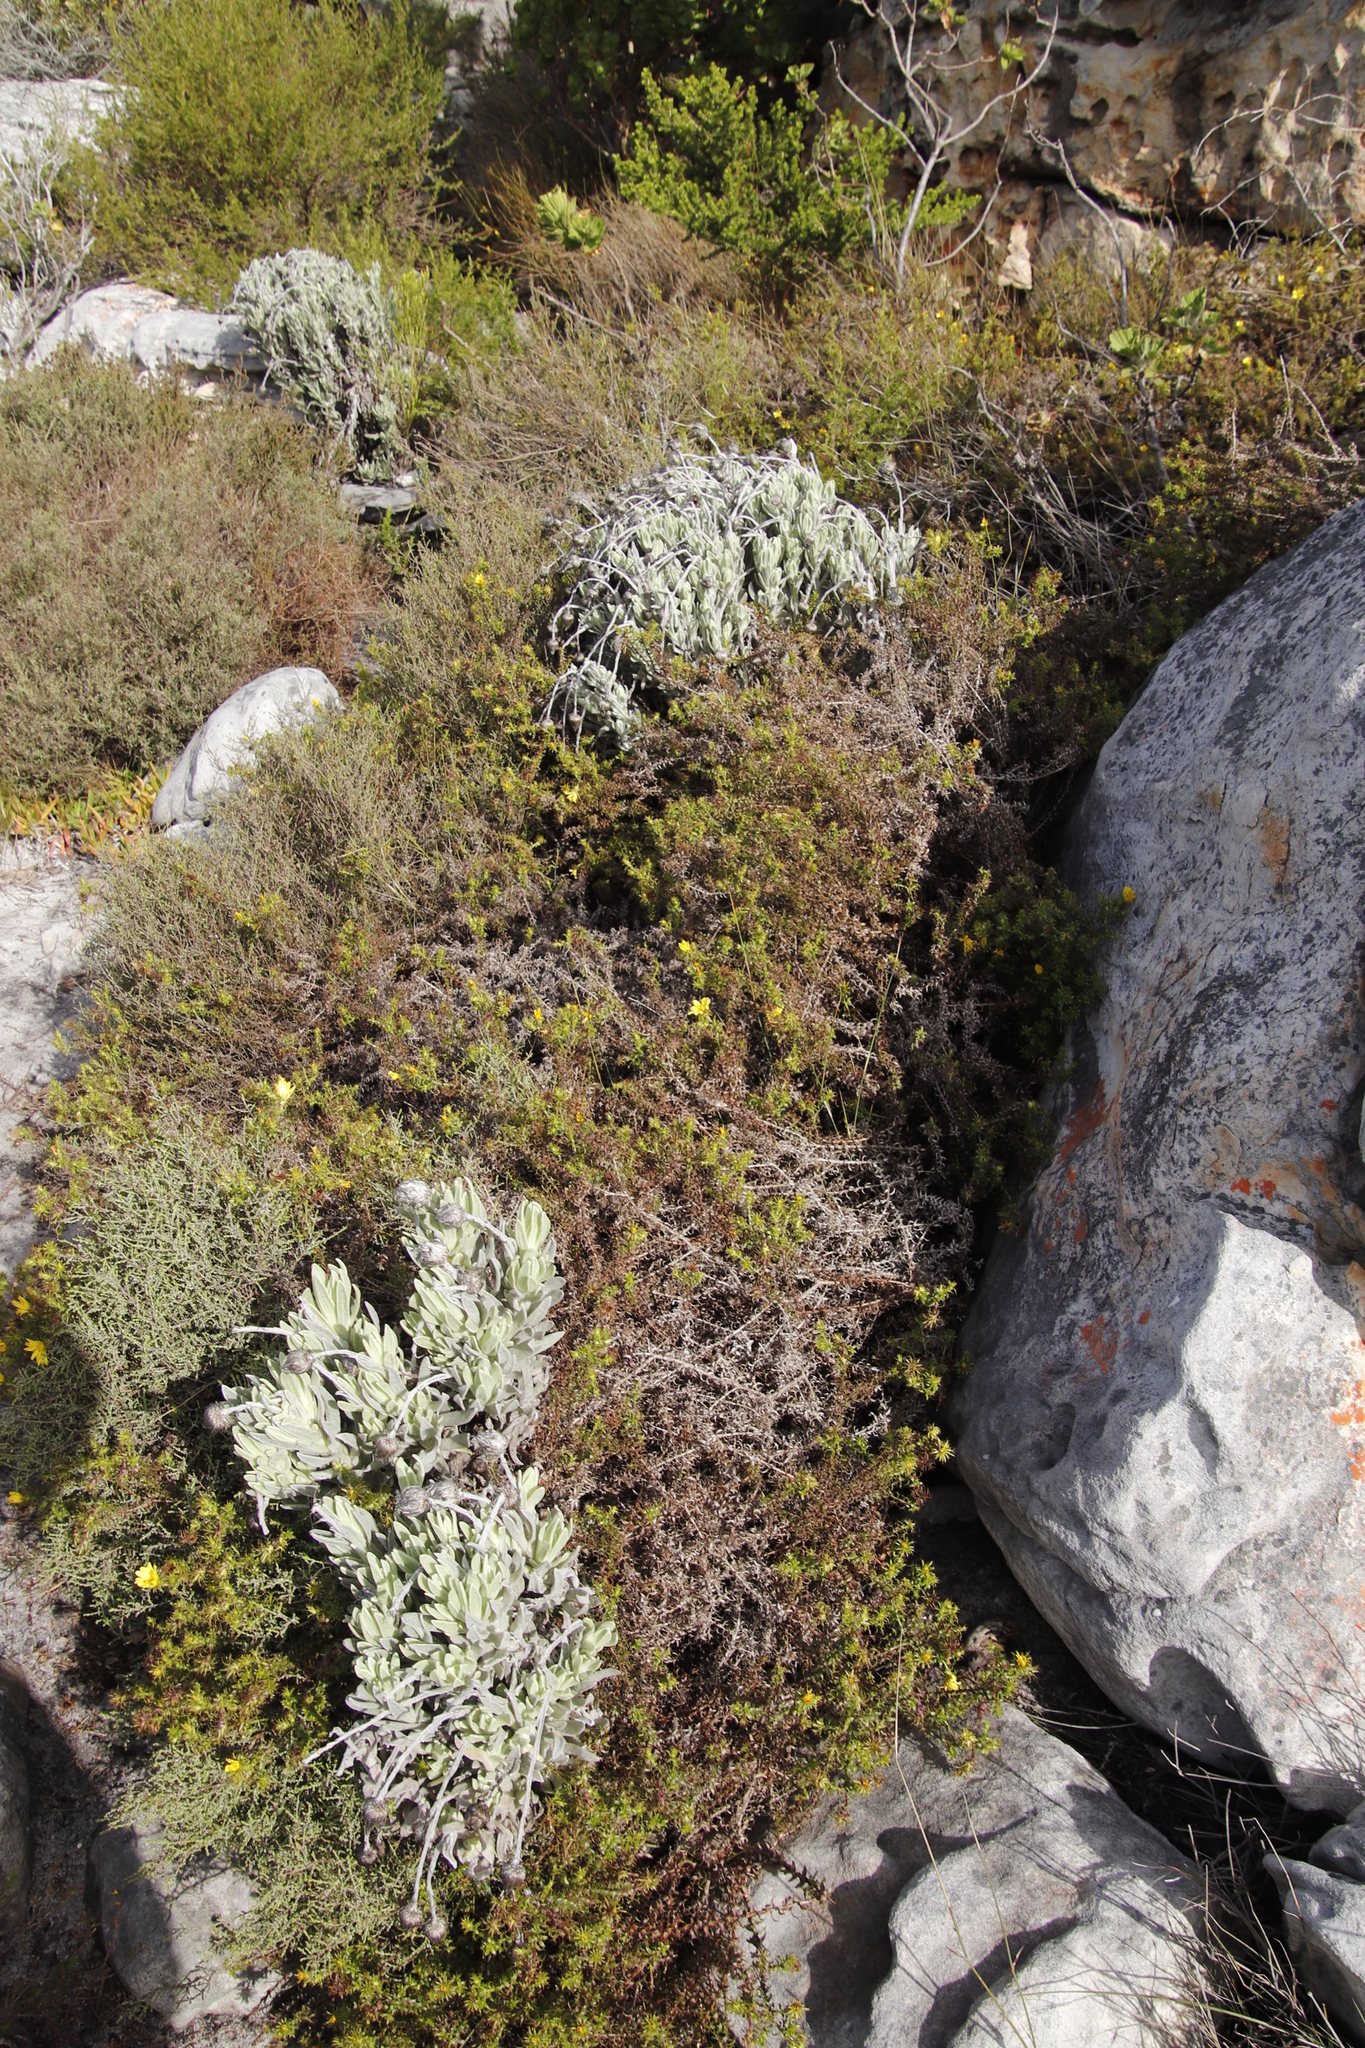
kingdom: Plantae
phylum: Tracheophyta
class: Magnoliopsida
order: Asterales
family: Asteraceae
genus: Syncarpha
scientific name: Syncarpha vestita
